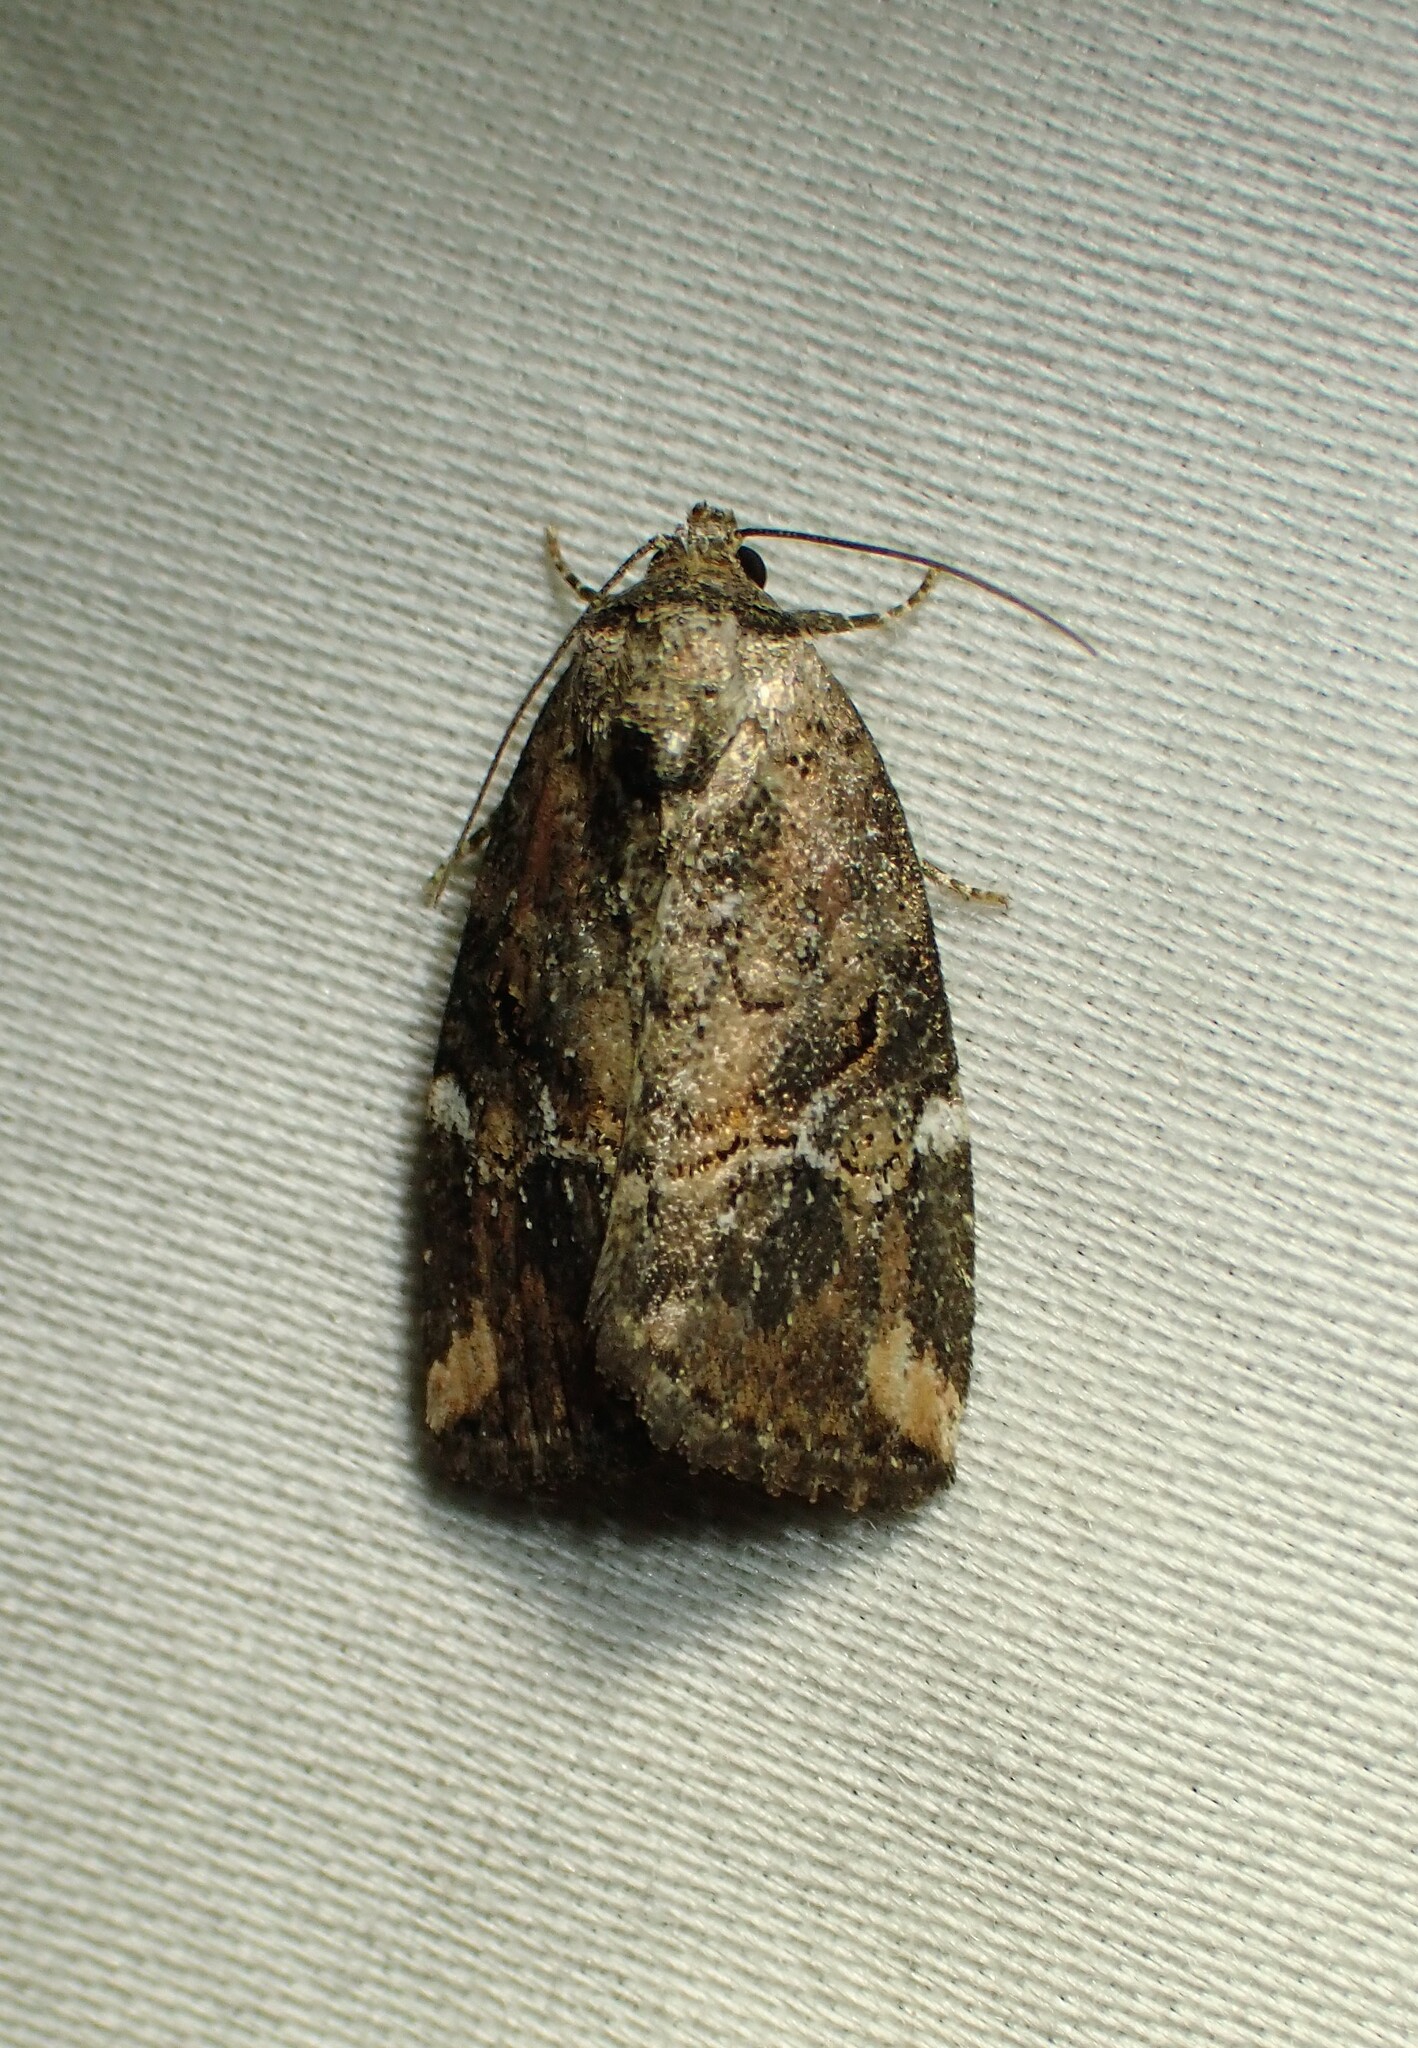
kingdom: Animalia
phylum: Arthropoda
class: Insecta
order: Lepidoptera
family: Noctuidae
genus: Elaphria
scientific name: Elaphria versicolor
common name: Fir harlequin
